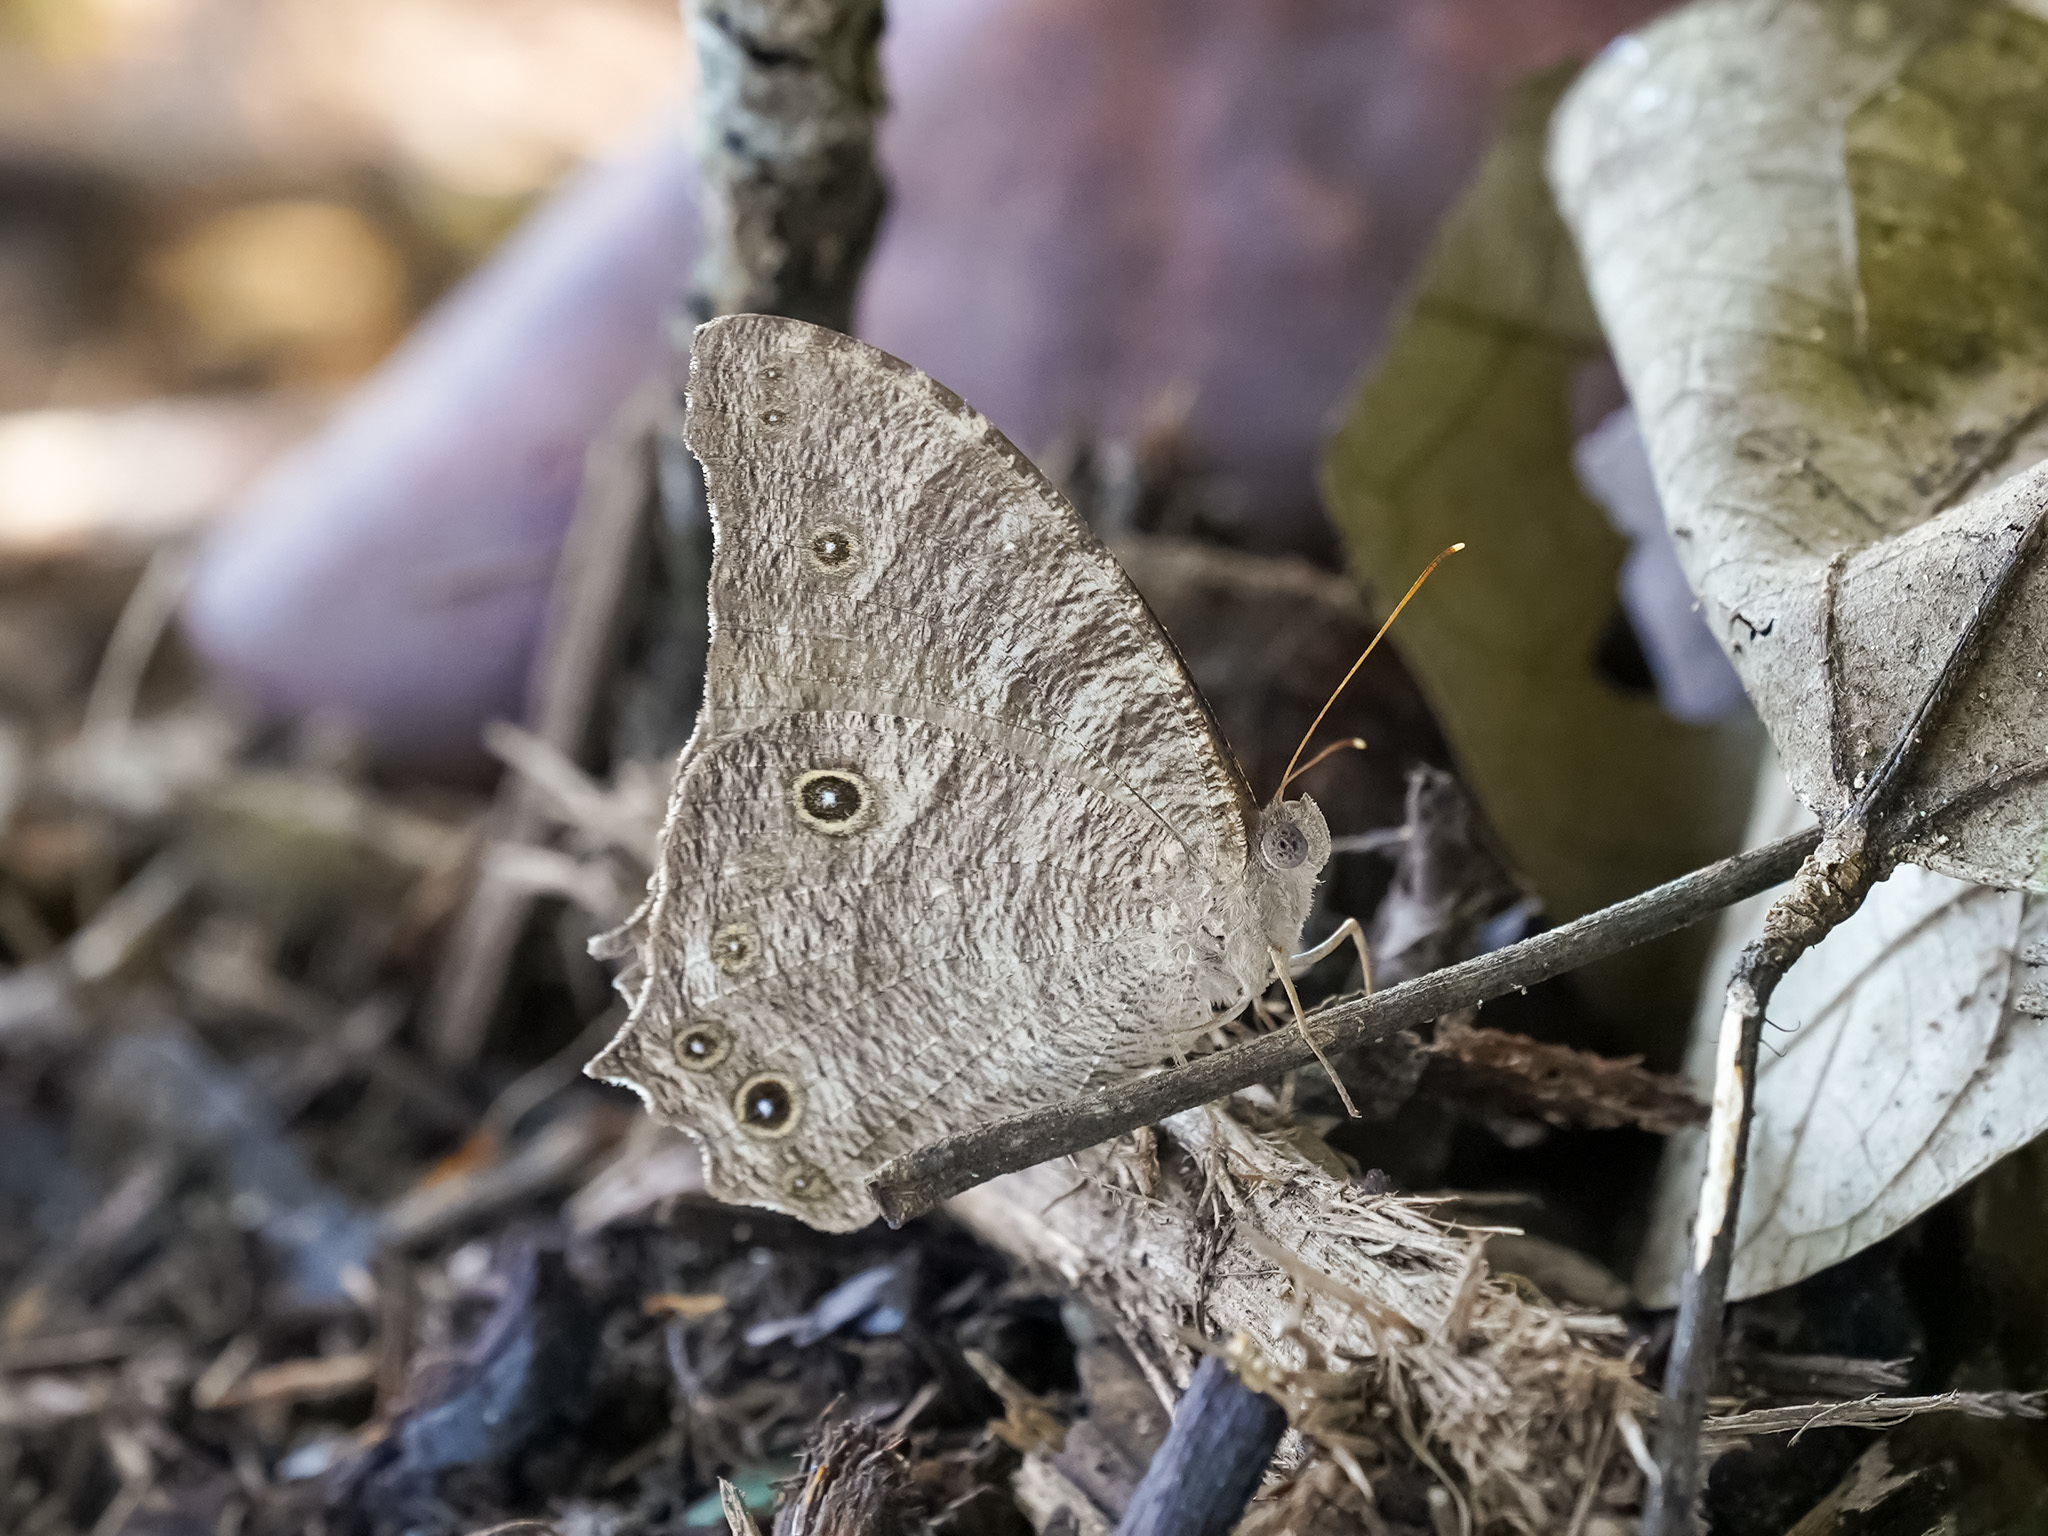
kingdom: Animalia
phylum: Arthropoda
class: Insecta
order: Lepidoptera
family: Nymphalidae
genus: Melanitis
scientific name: Melanitis leda
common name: Twilight brown
